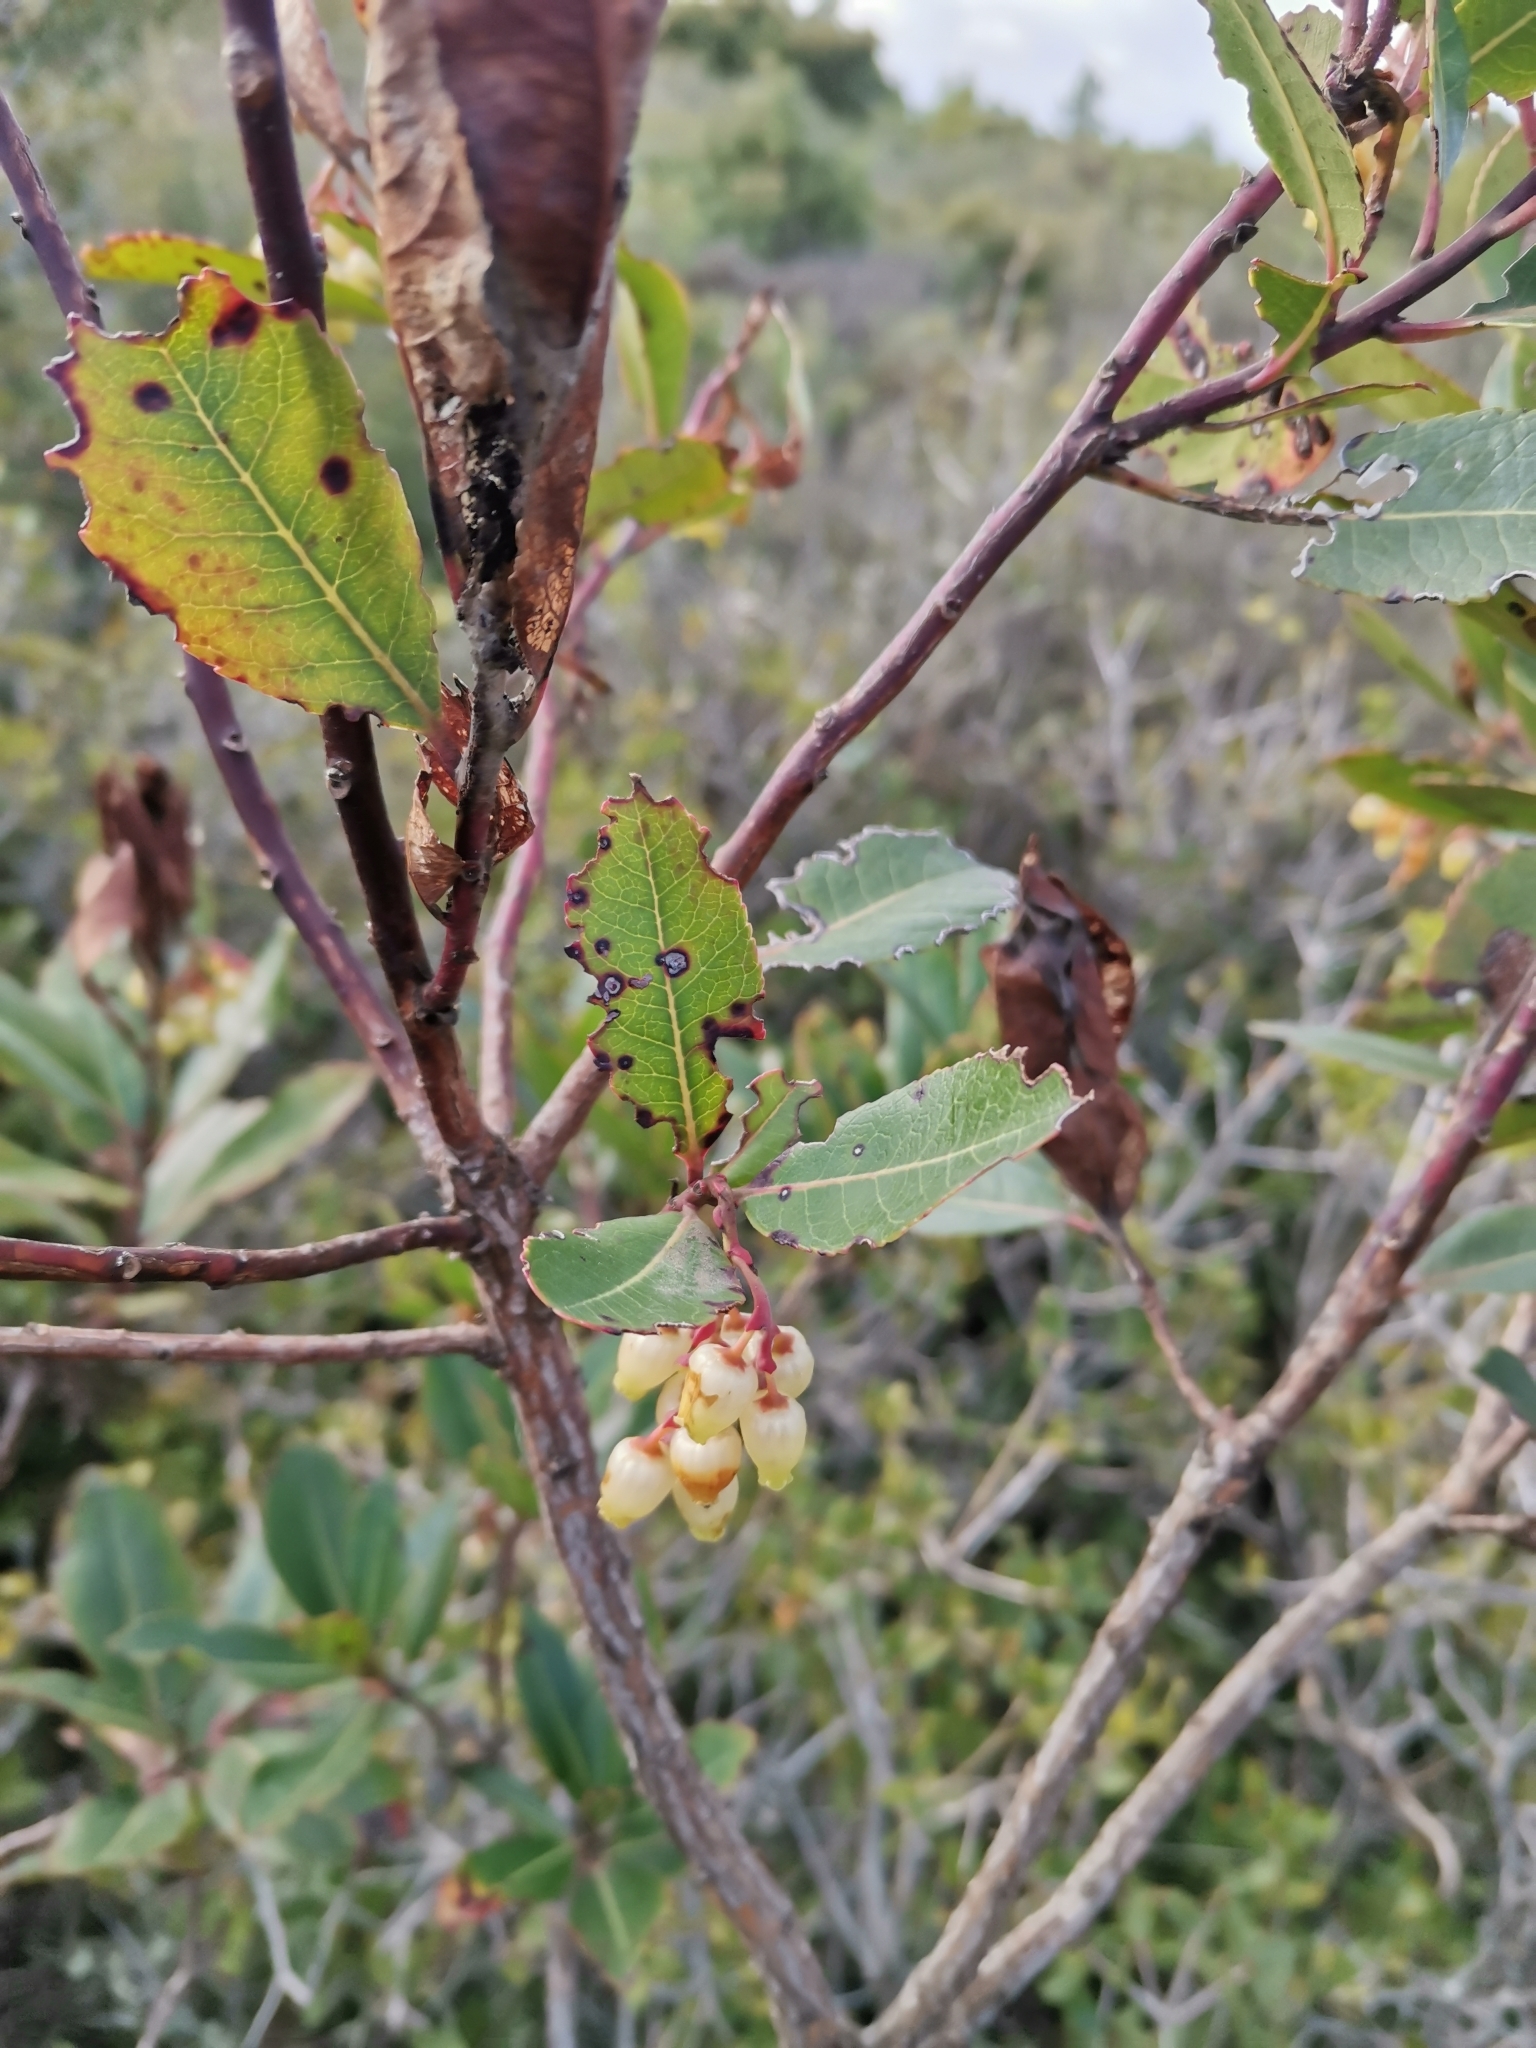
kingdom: Plantae
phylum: Tracheophyta
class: Magnoliopsida
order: Ericales
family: Ericaceae
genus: Arbutus
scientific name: Arbutus unedo
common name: Strawberry-tree
